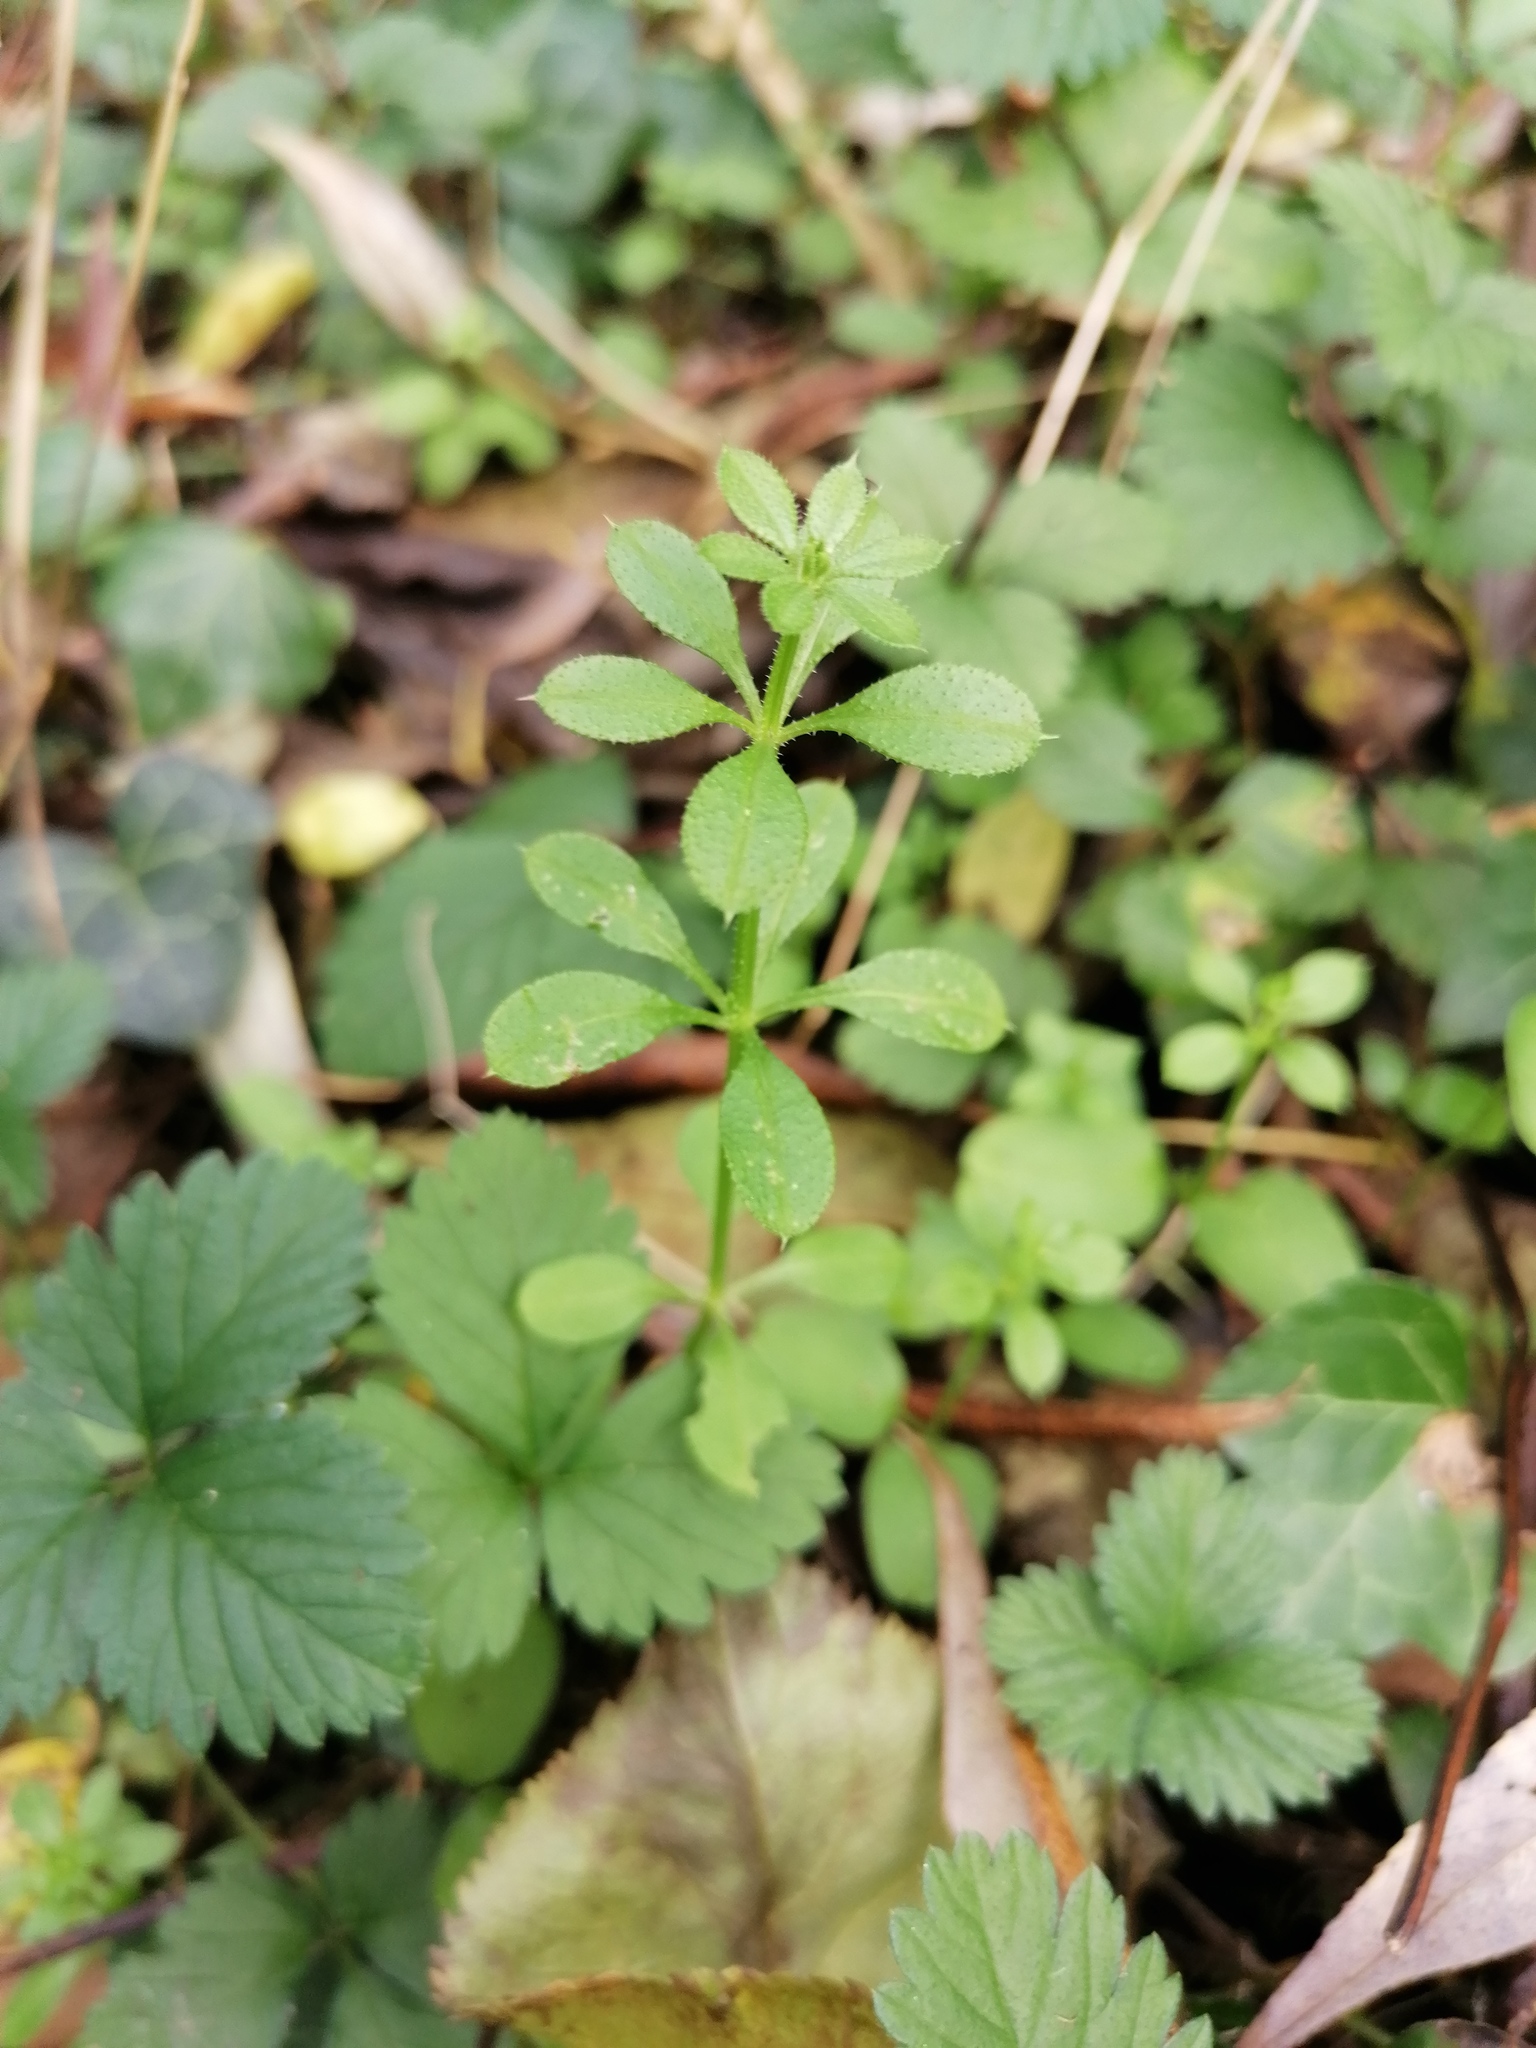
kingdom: Plantae
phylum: Tracheophyta
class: Magnoliopsida
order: Gentianales
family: Rubiaceae
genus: Galium
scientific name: Galium aparine
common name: Cleavers
